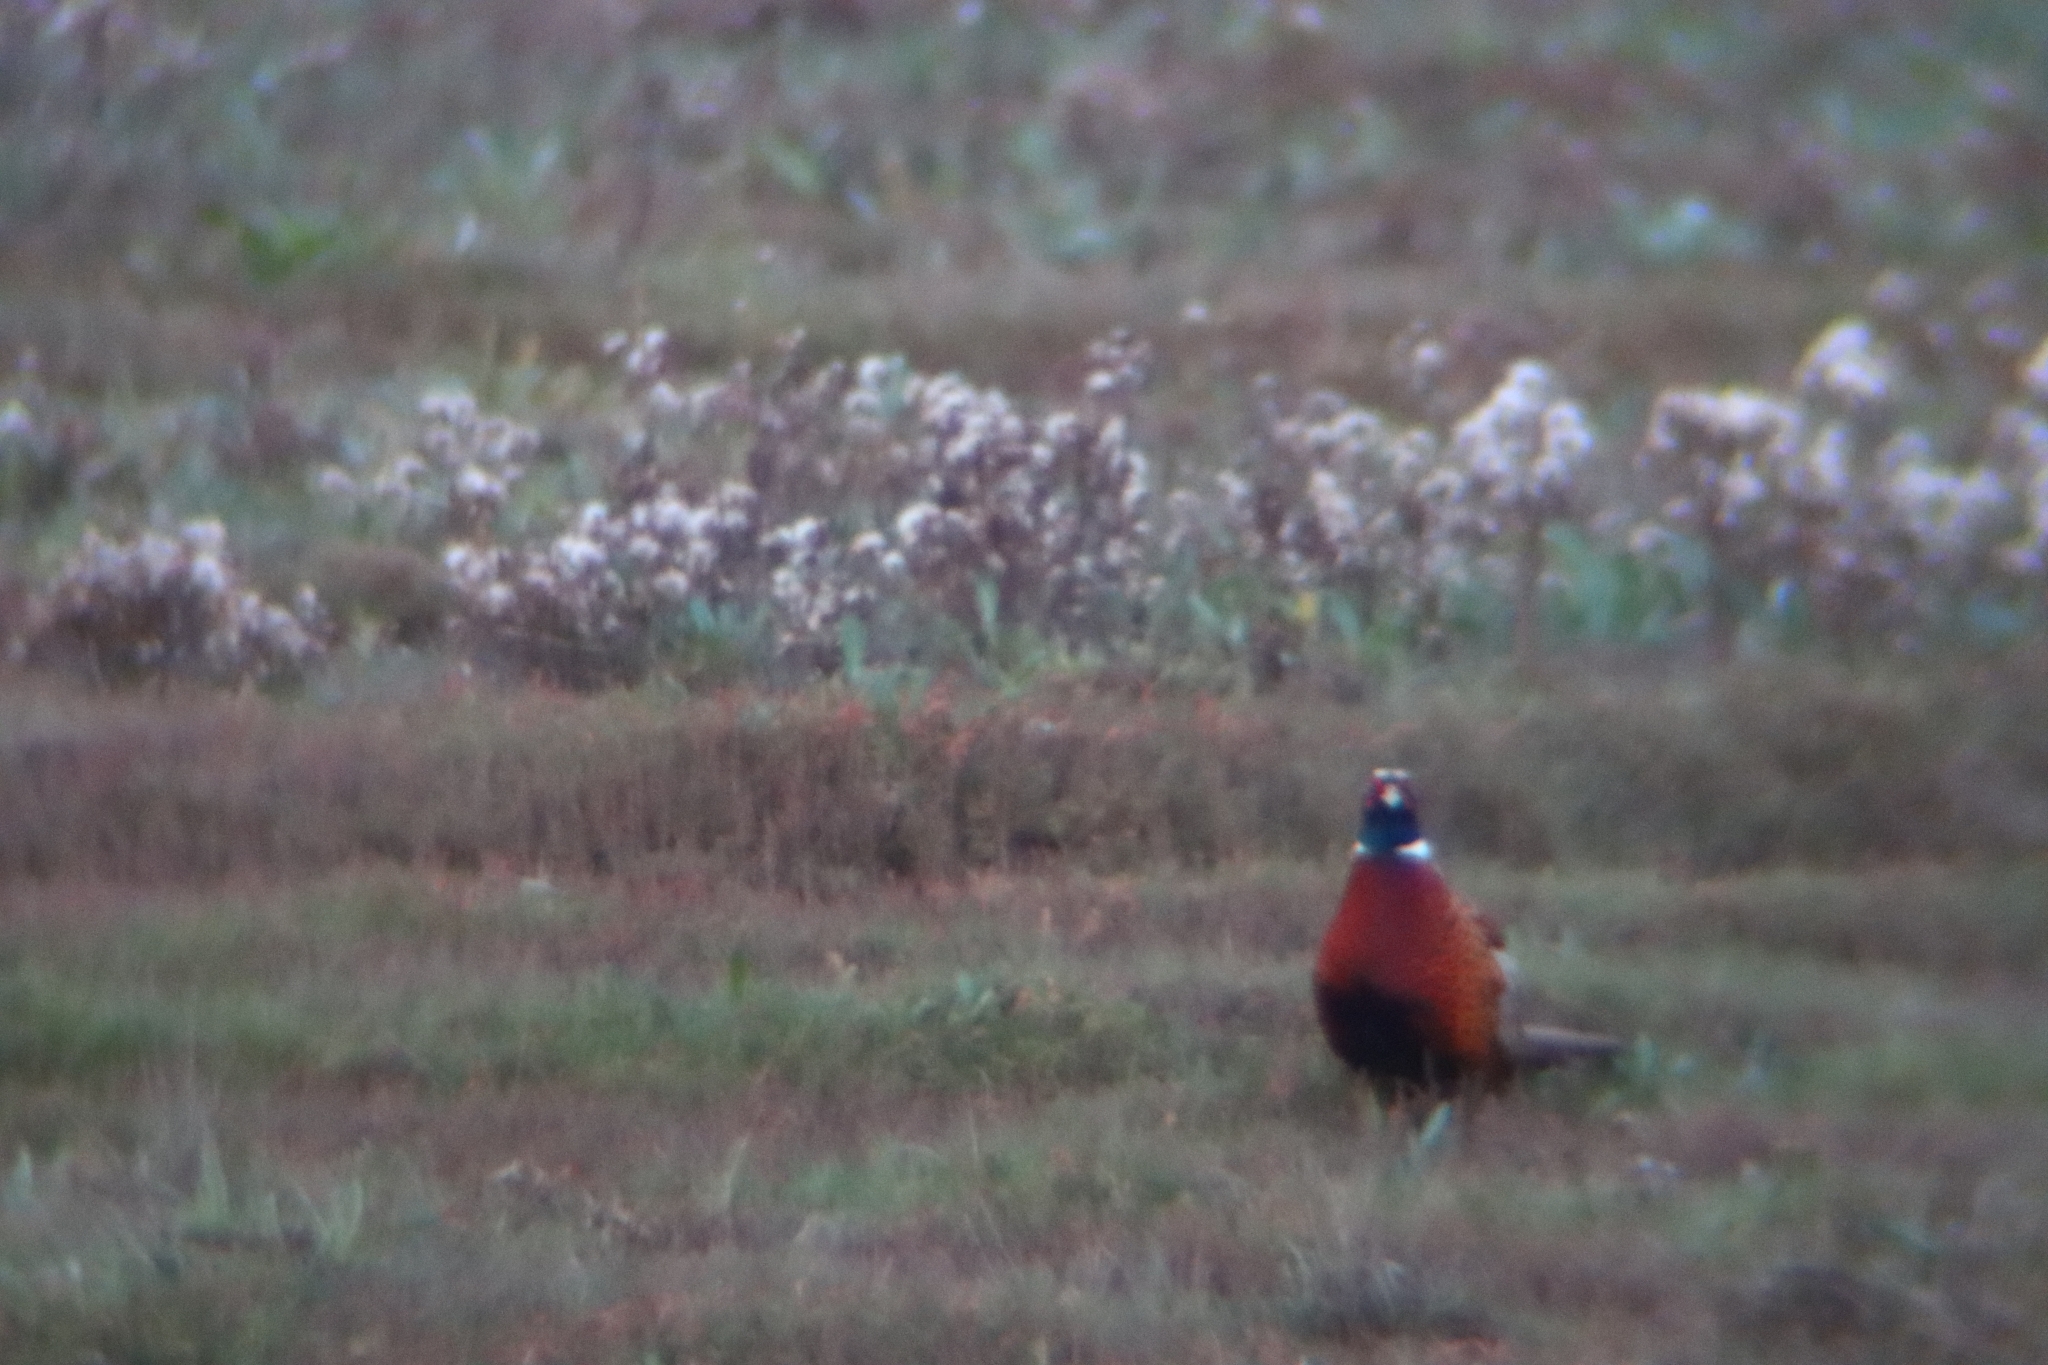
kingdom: Animalia
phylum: Chordata
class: Aves
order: Galliformes
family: Phasianidae
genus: Phasianus
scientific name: Phasianus colchicus
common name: Common pheasant
